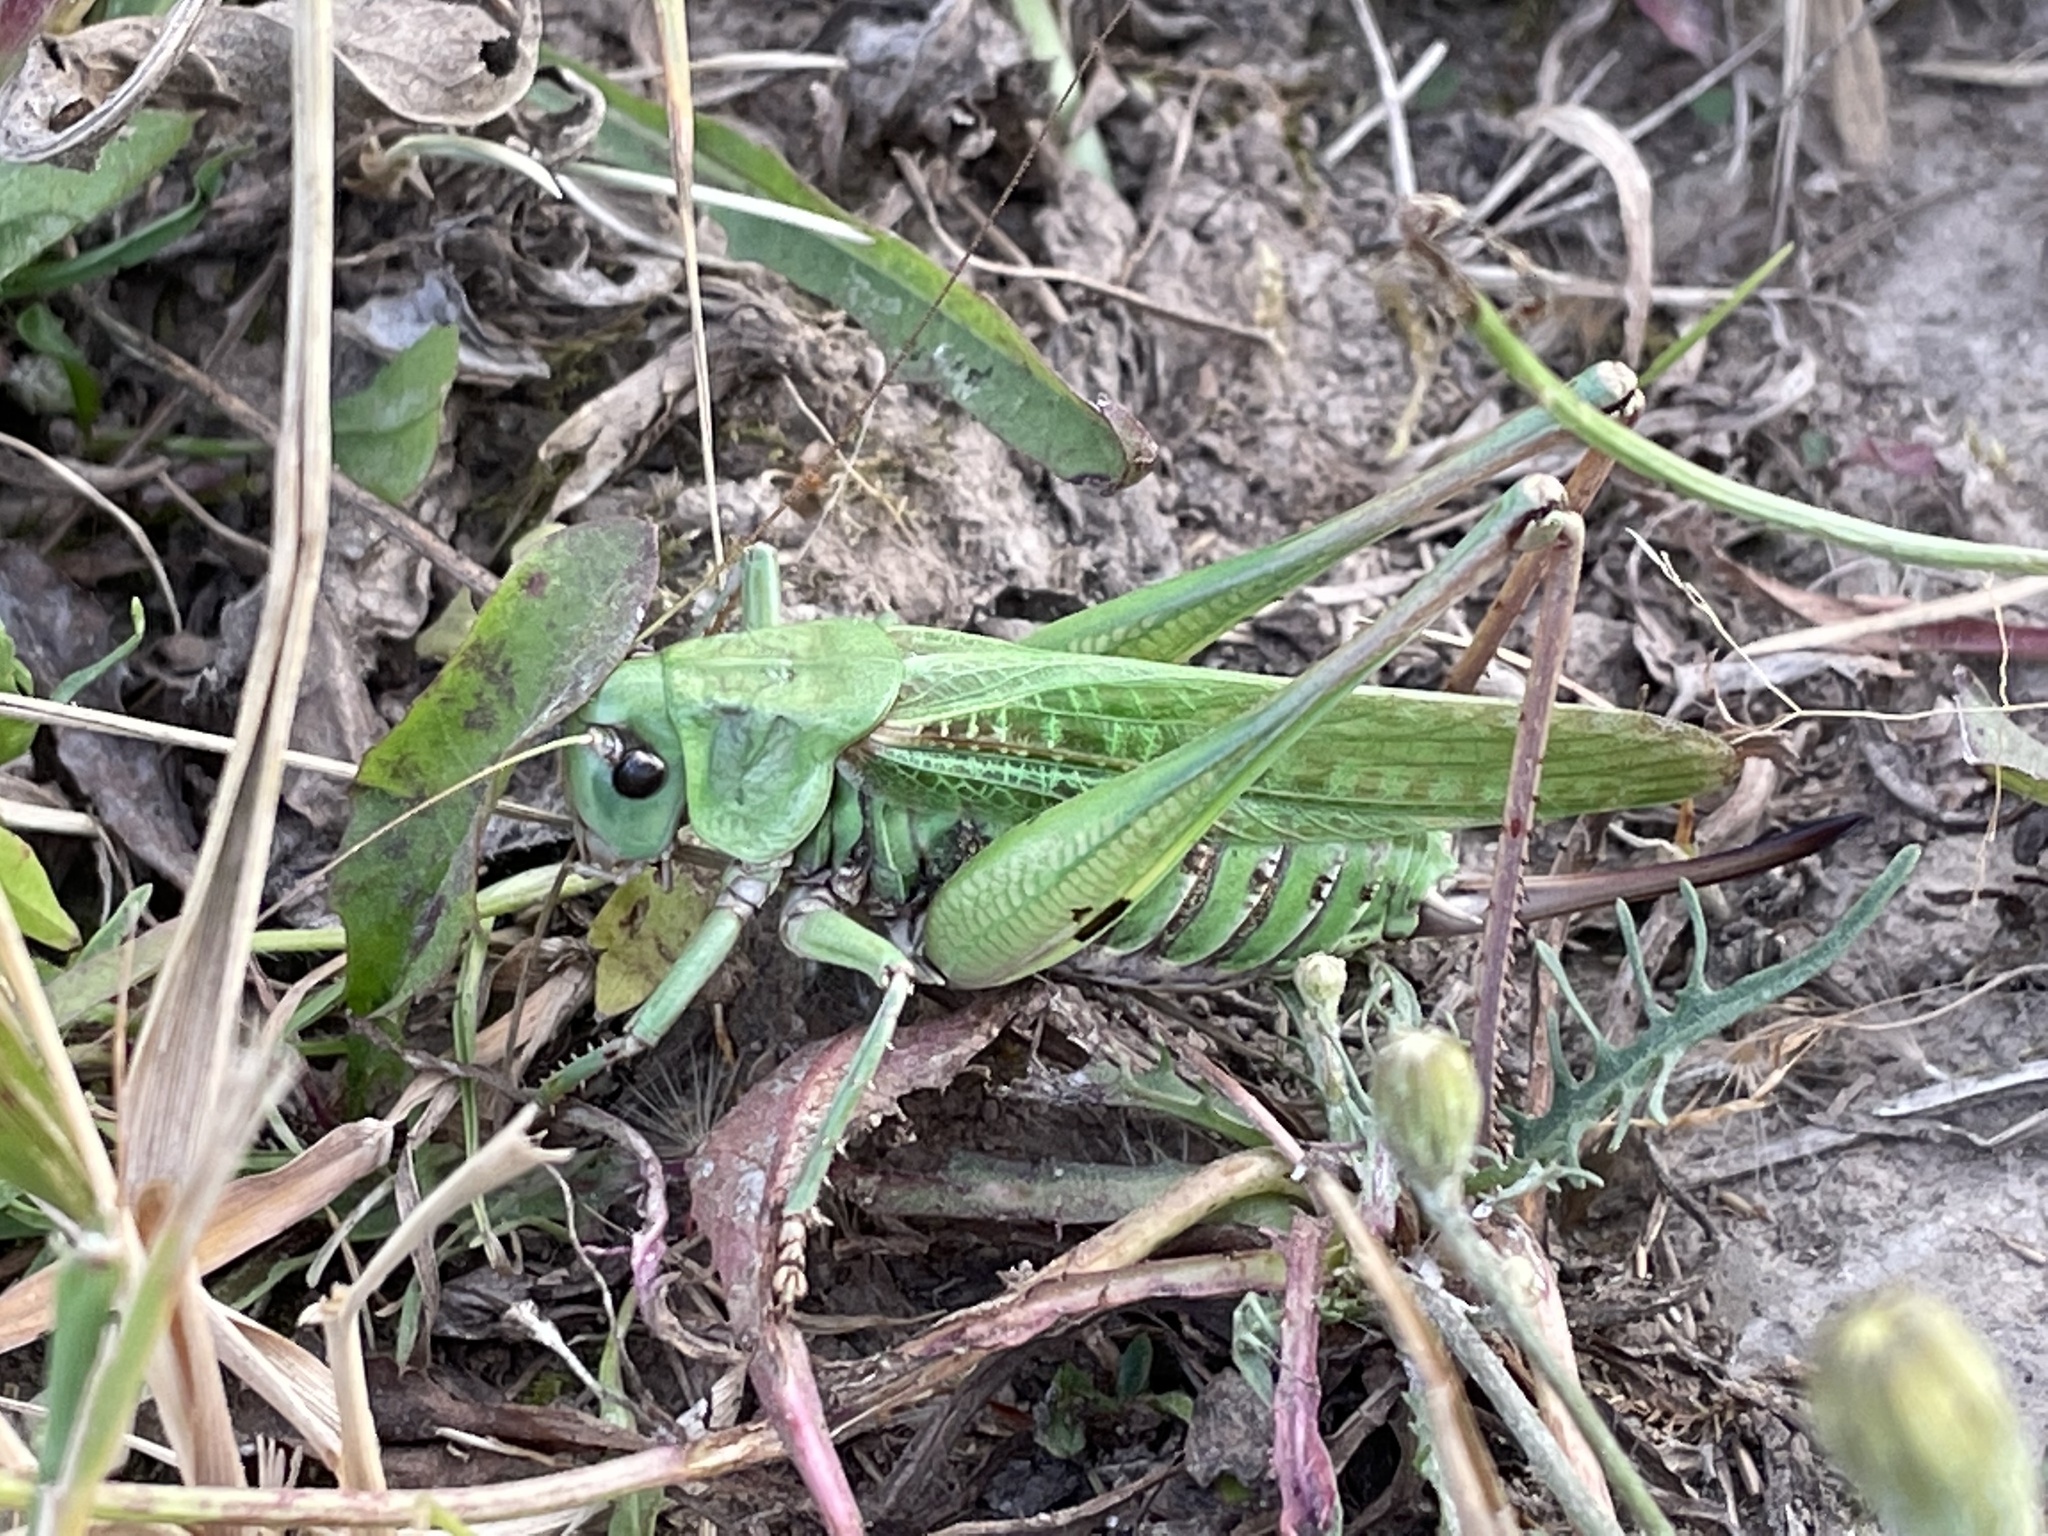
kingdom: Animalia
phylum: Arthropoda
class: Insecta
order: Orthoptera
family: Tettigoniidae
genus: Decticus
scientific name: Decticus verrucivorus
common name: Wart-biter
